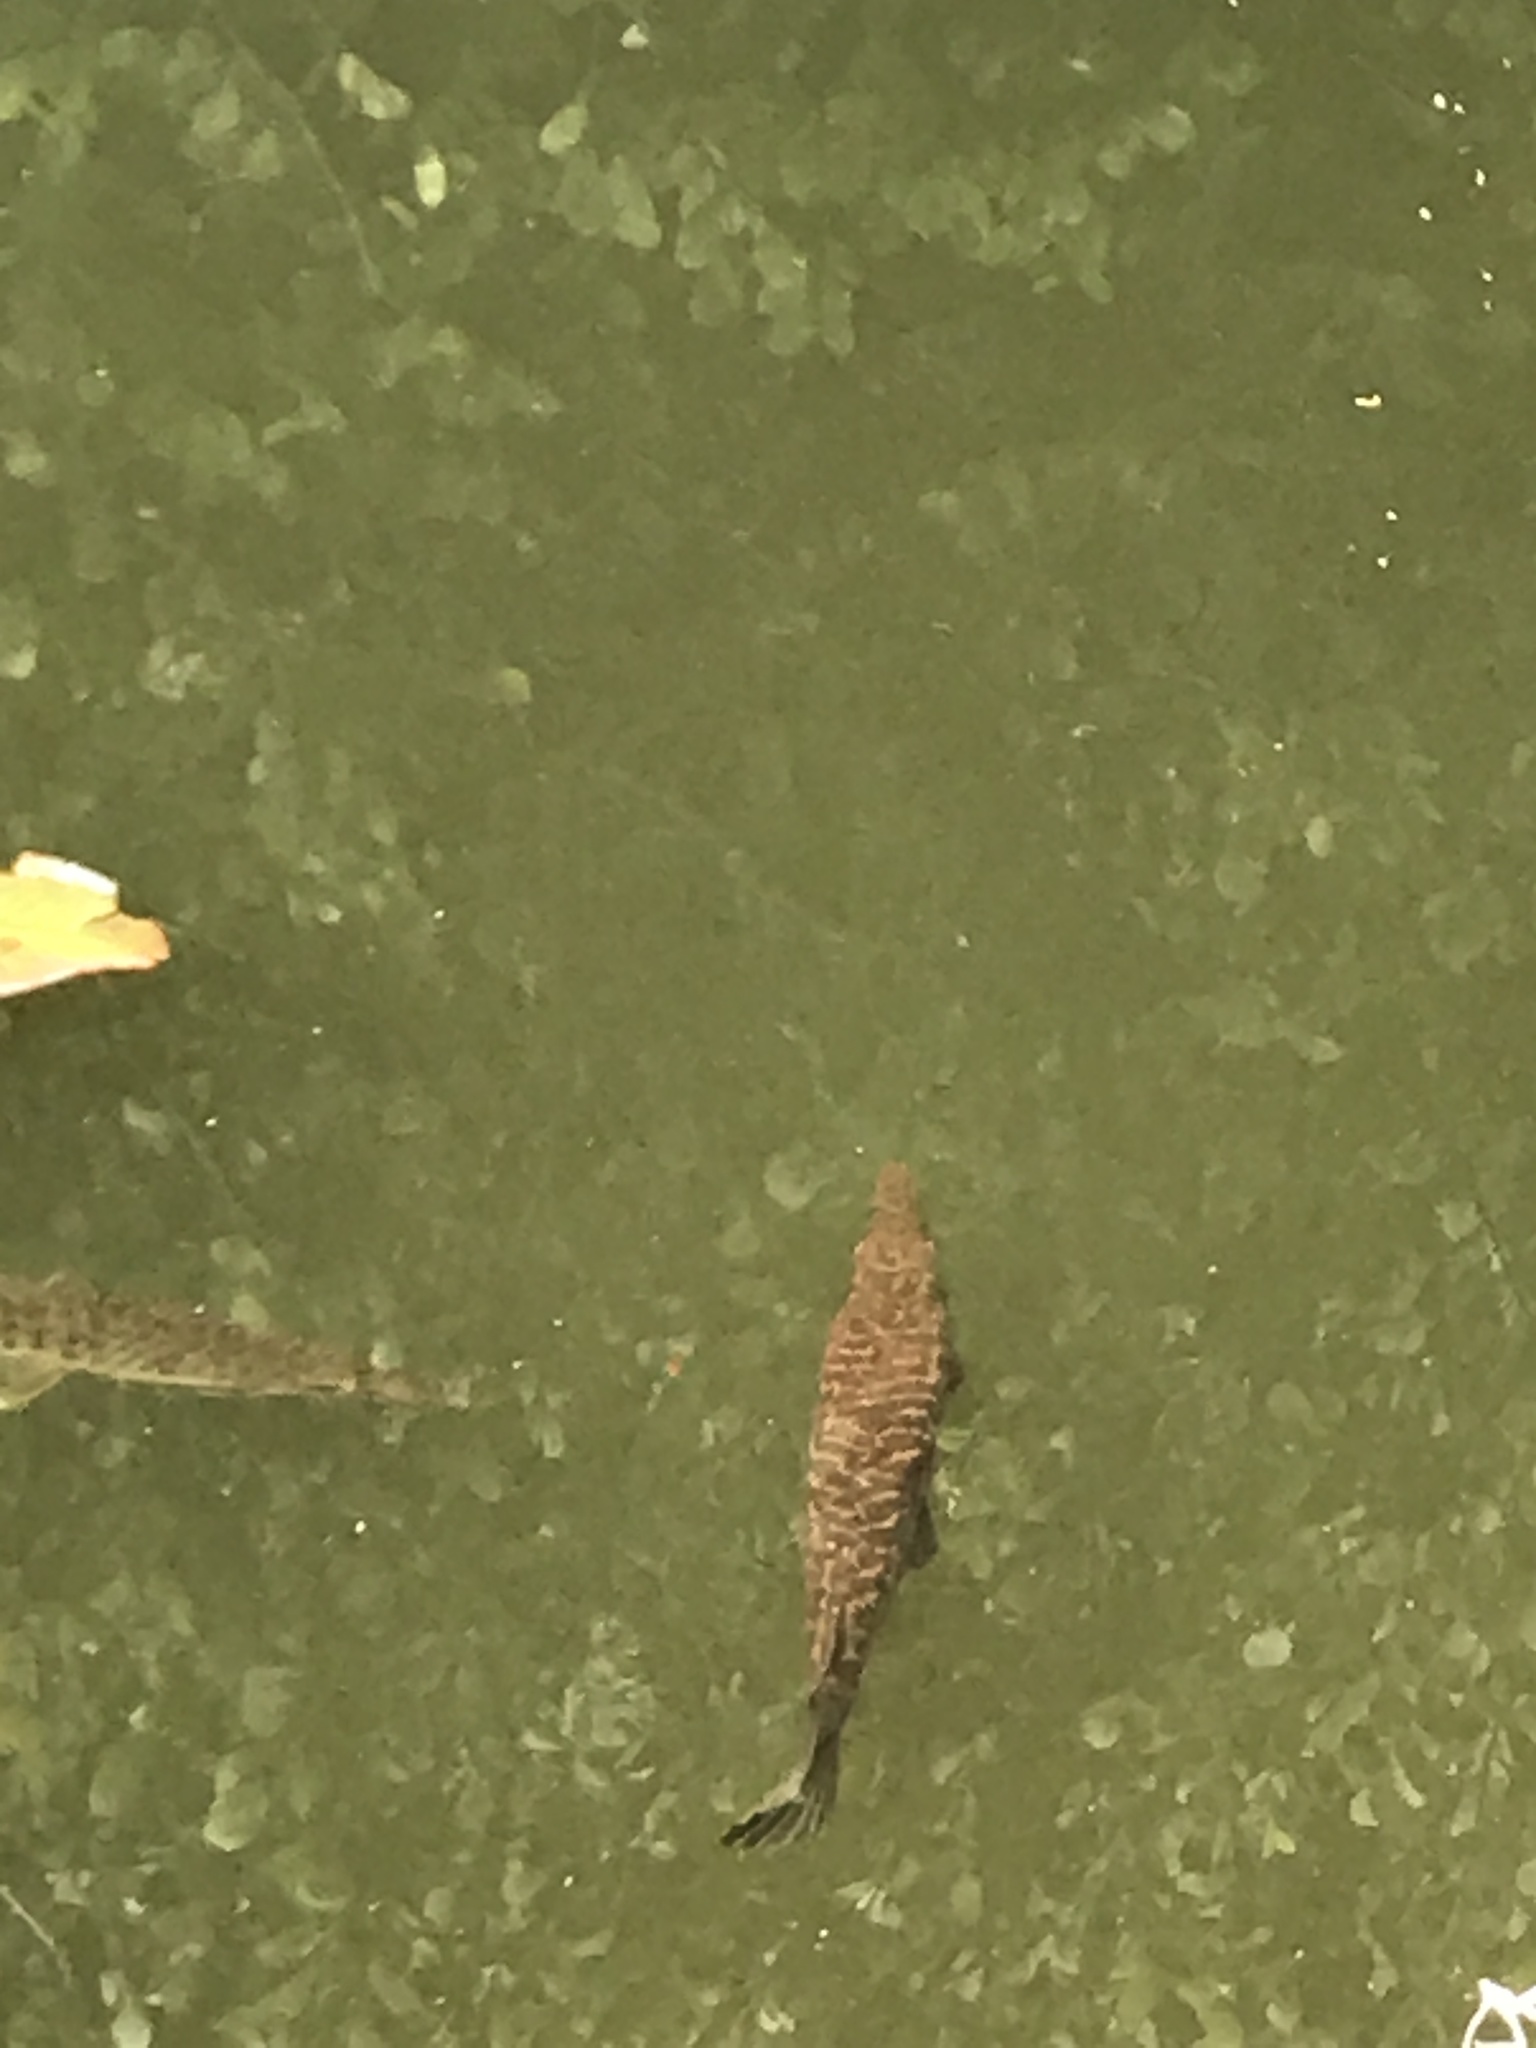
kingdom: Animalia
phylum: Chordata
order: Lepisosteiformes
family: Lepisosteidae
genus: Lepisosteus
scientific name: Lepisosteus platyrhincus
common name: Florida gar
